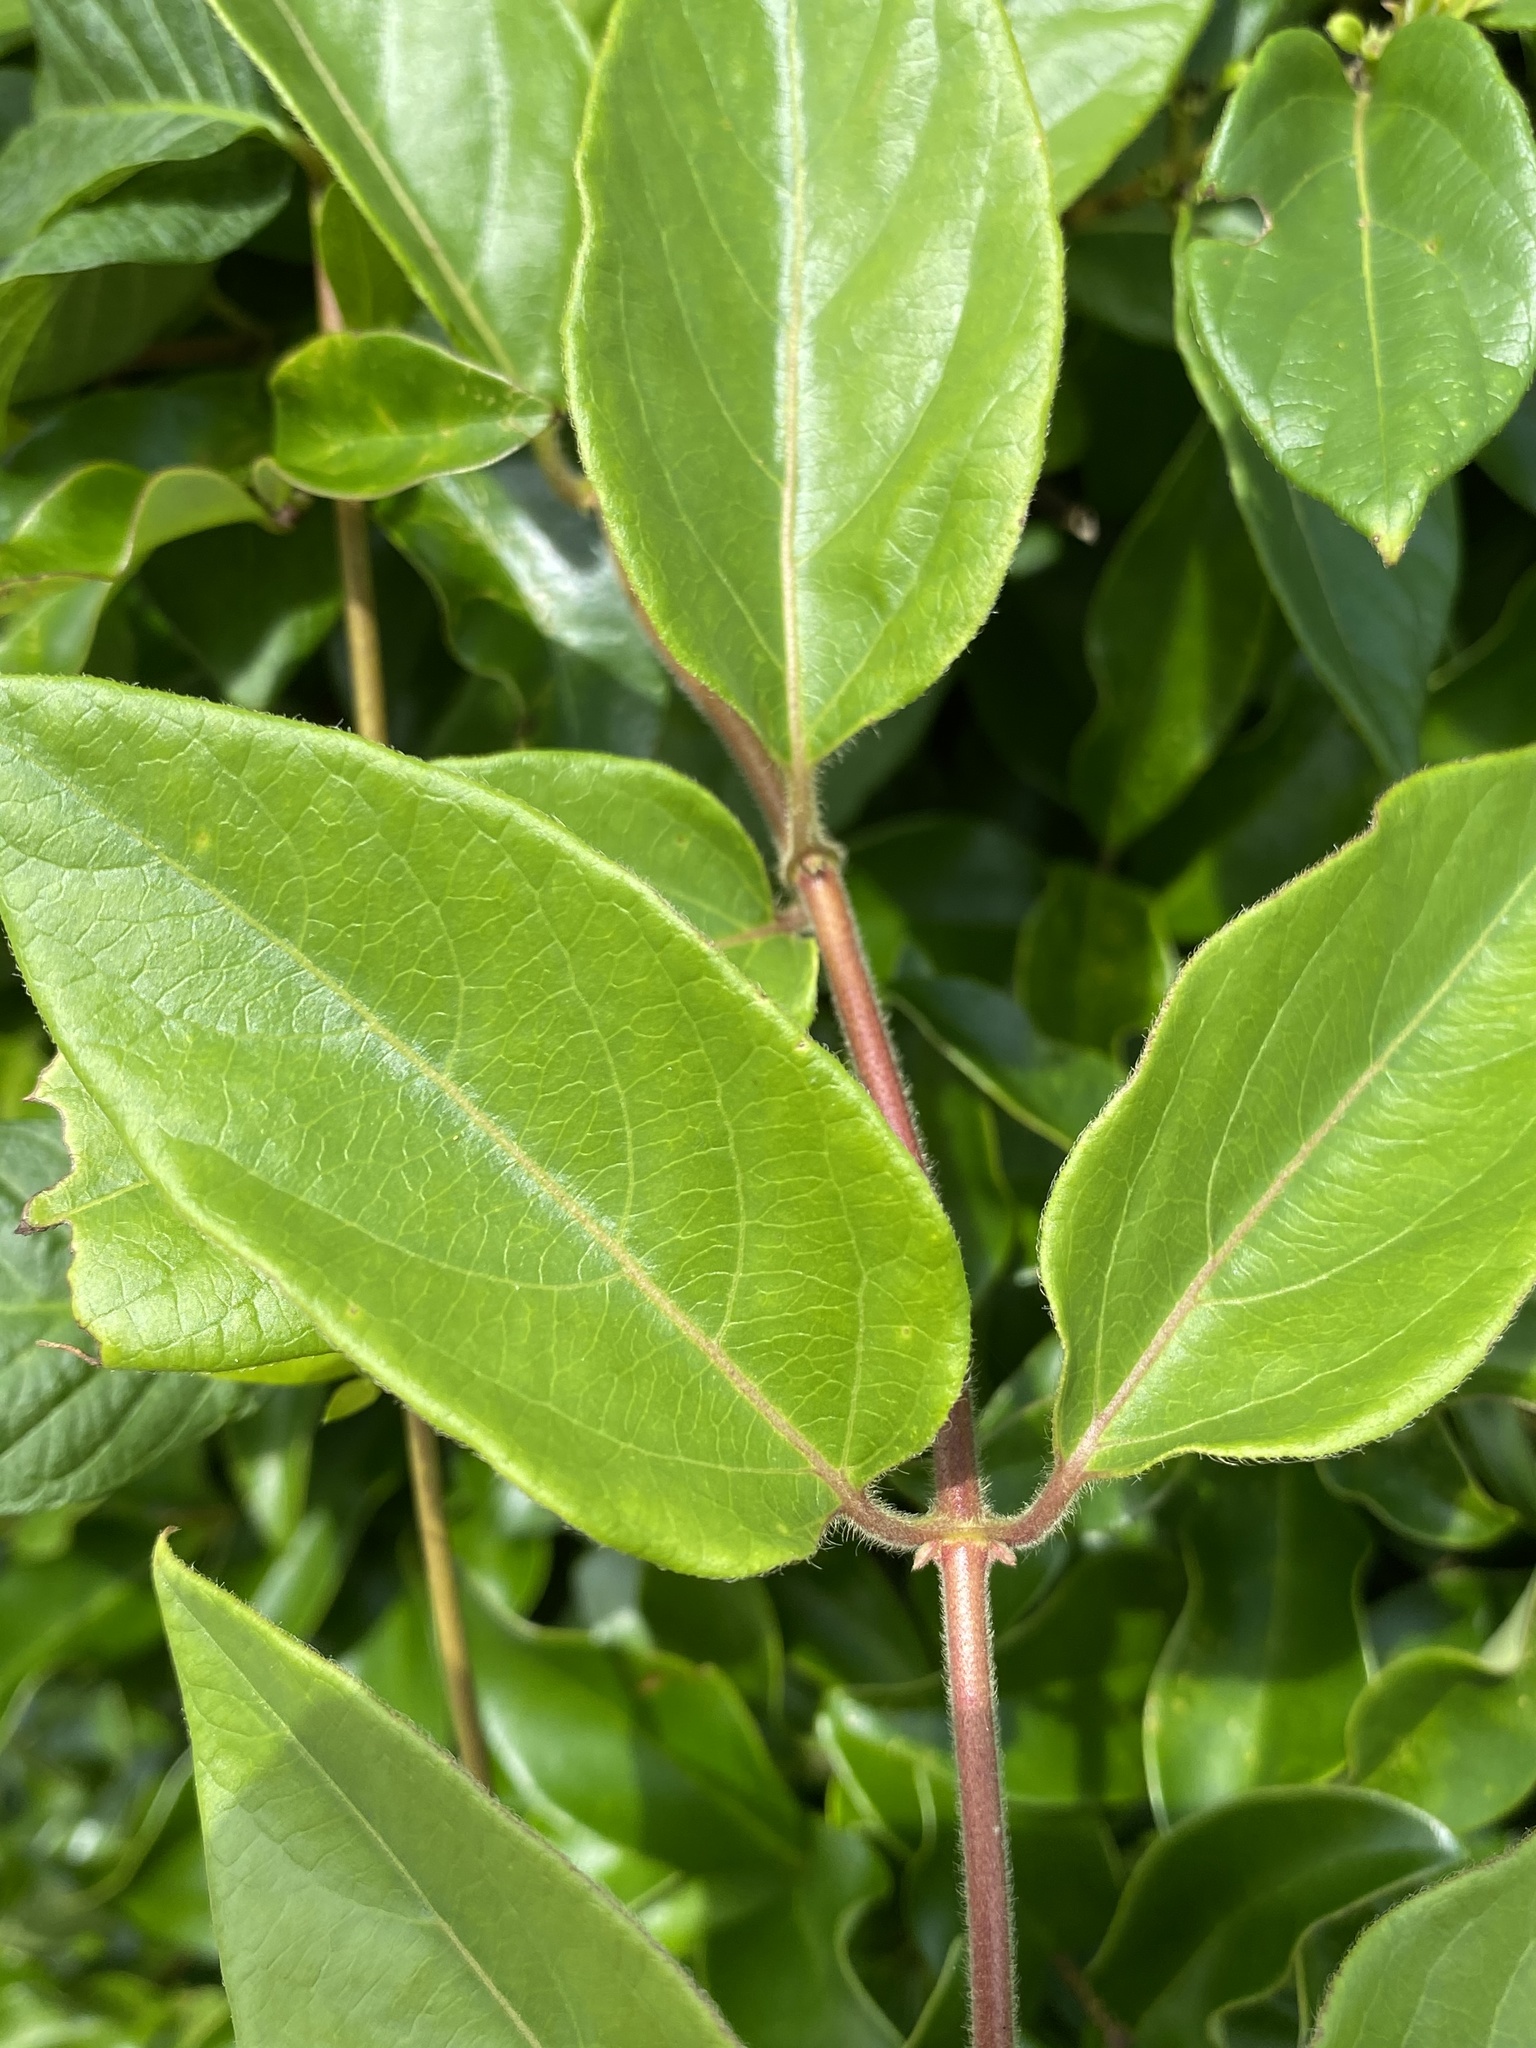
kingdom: Plantae
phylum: Tracheophyta
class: Magnoliopsida
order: Dipsacales
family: Caprifoliaceae
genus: Lonicera
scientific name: Lonicera japonica
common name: Japanese honeysuckle
